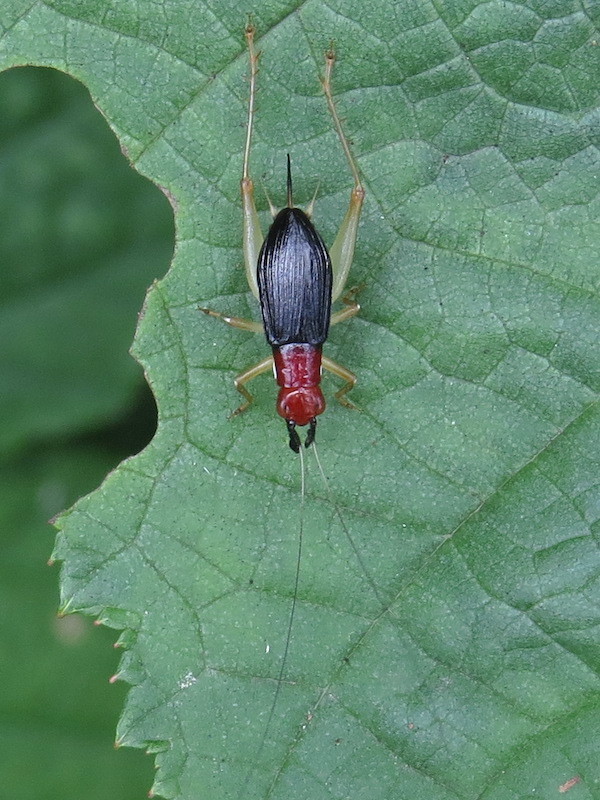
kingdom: Animalia
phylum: Arthropoda
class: Insecta
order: Orthoptera
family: Trigonidiidae
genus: Phyllopalpus
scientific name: Phyllopalpus pulchellus
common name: Handsome trig
